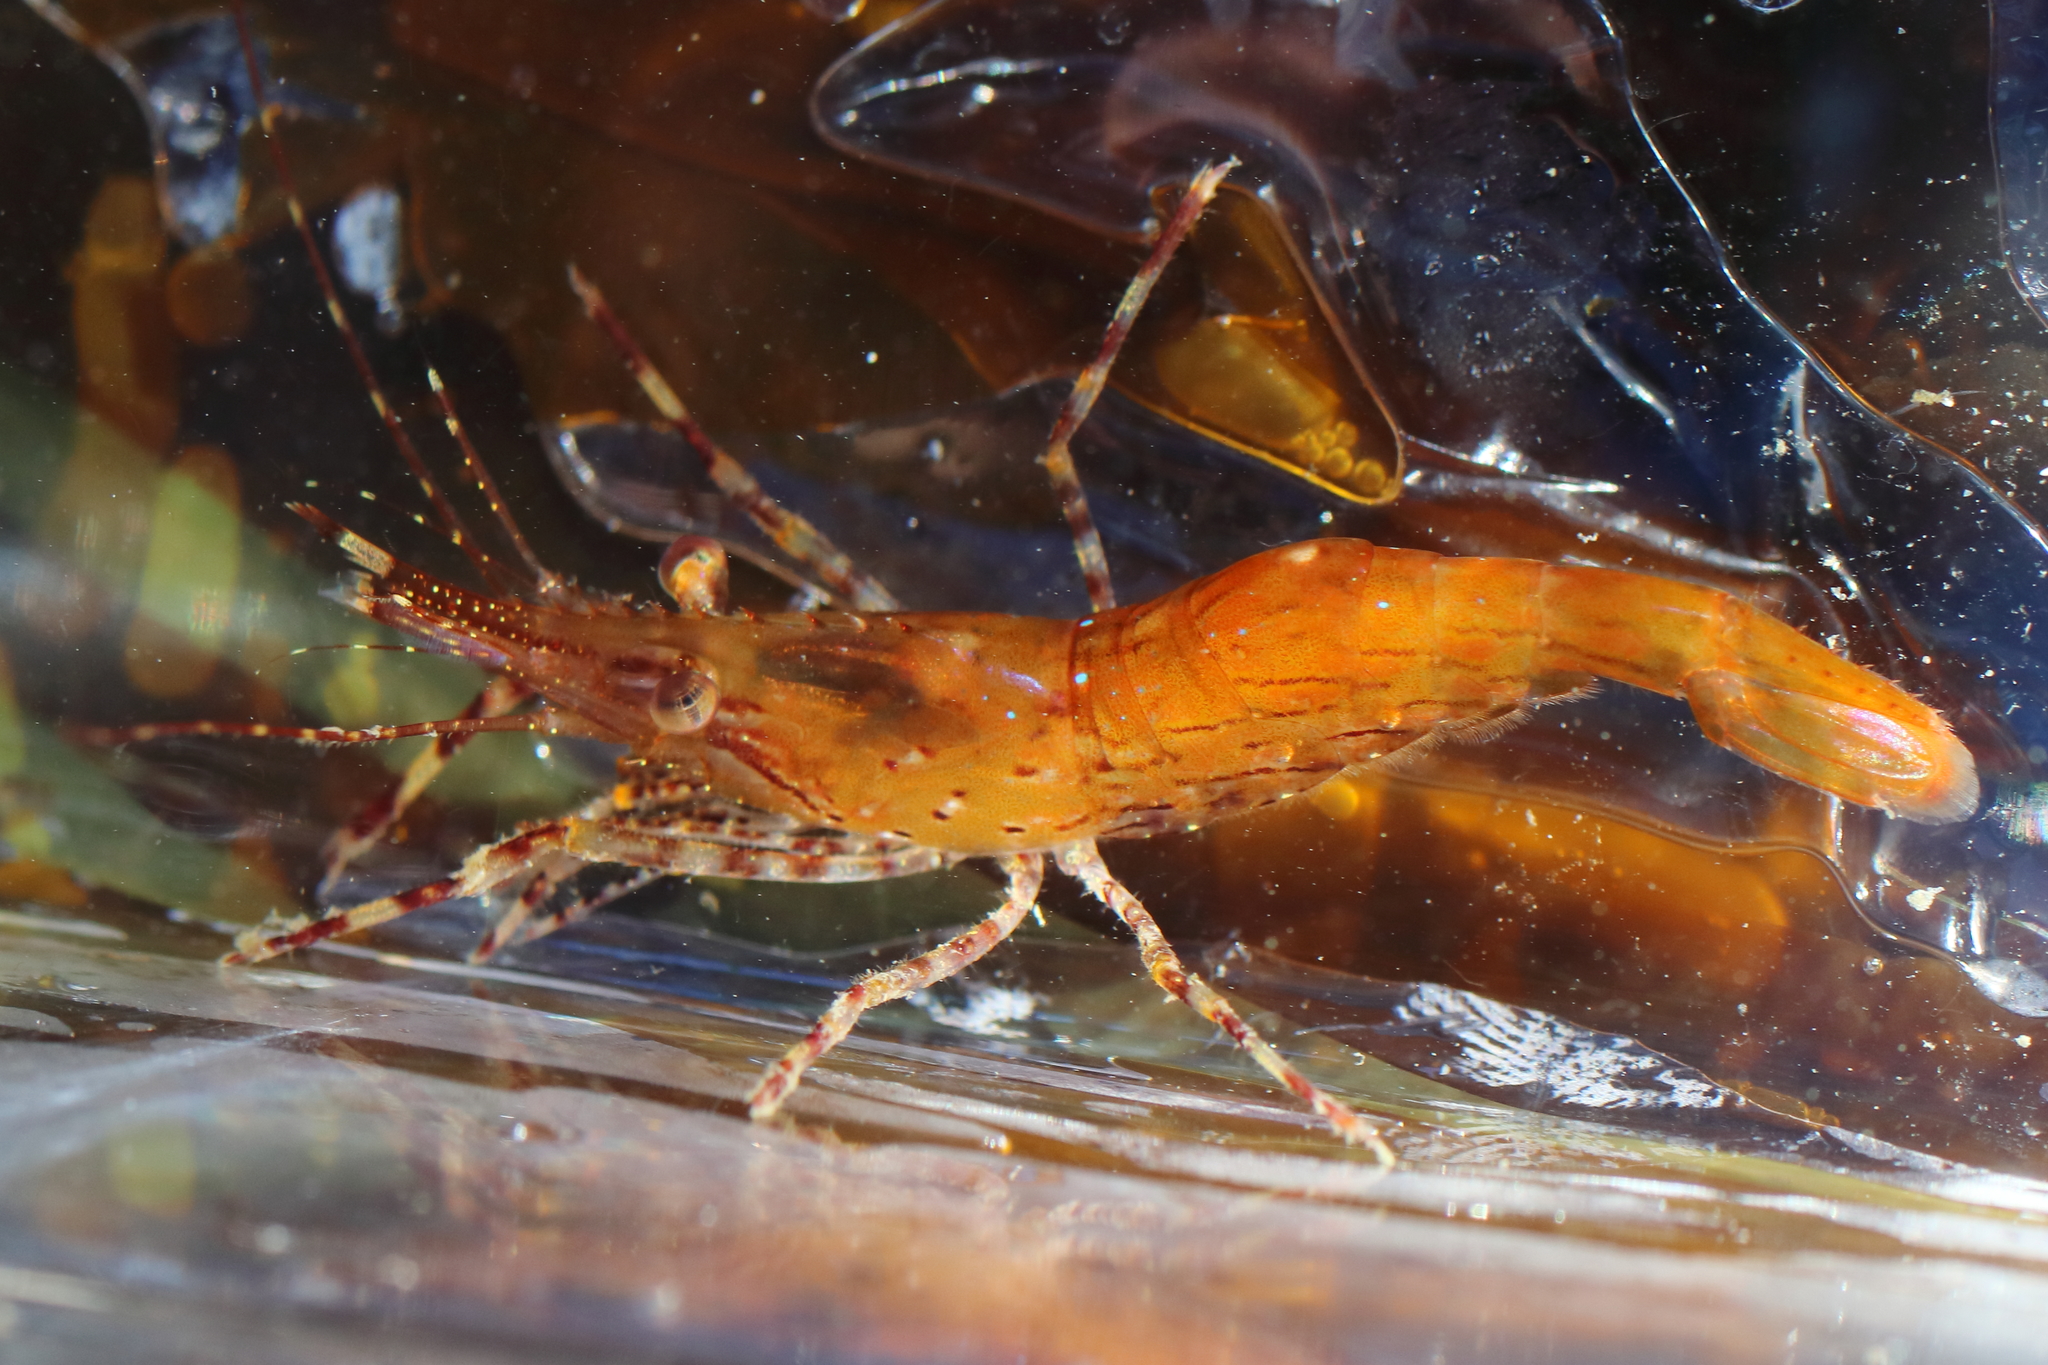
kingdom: Animalia
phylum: Arthropoda
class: Malacostraca
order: Decapoda
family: Pandalidae
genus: Pandalus
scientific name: Pandalus danae
